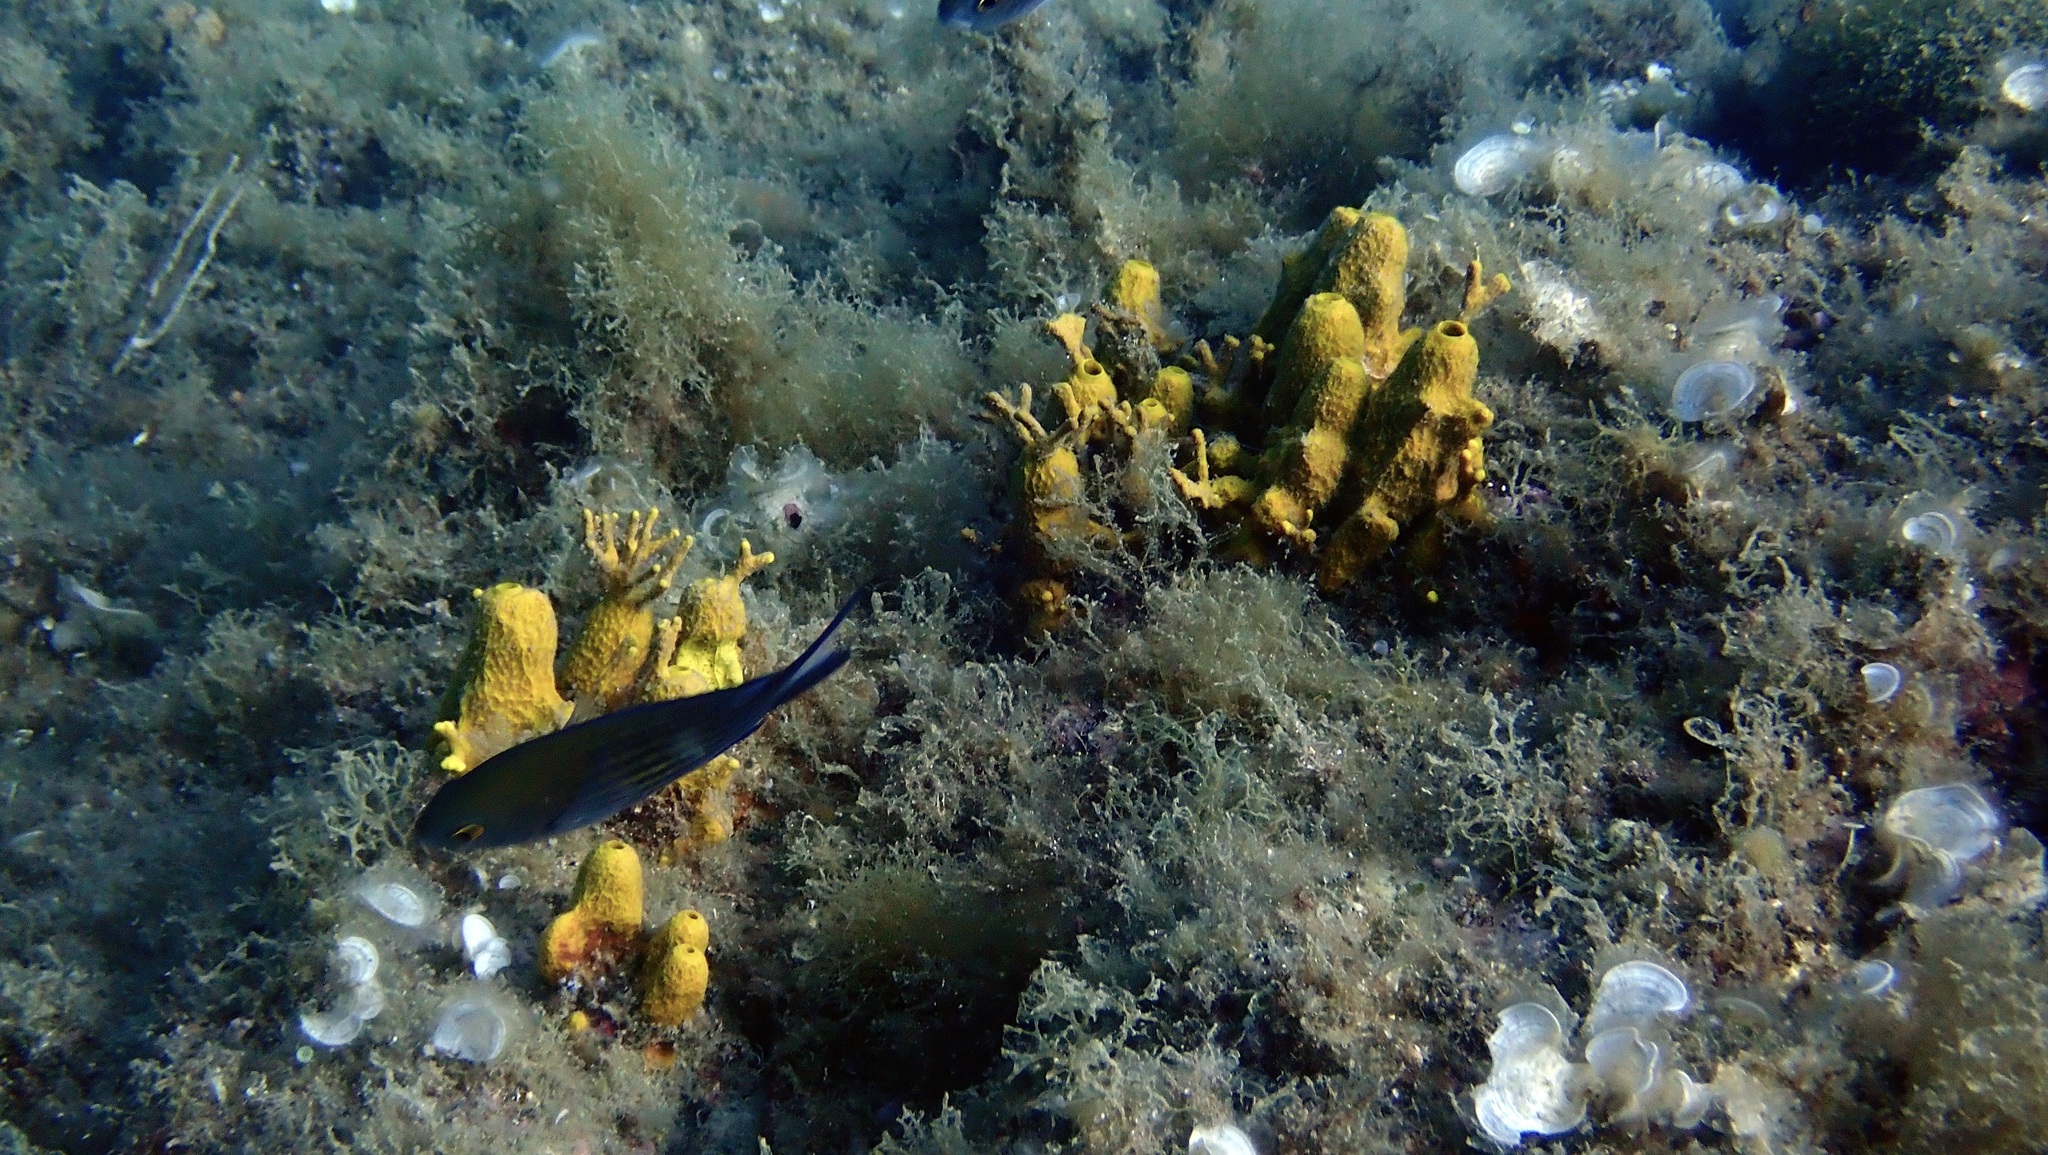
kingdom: Animalia
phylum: Porifera
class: Demospongiae
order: Verongiida
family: Aplysinidae
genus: Aplysina
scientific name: Aplysina aerophoba
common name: Aureate sponge
